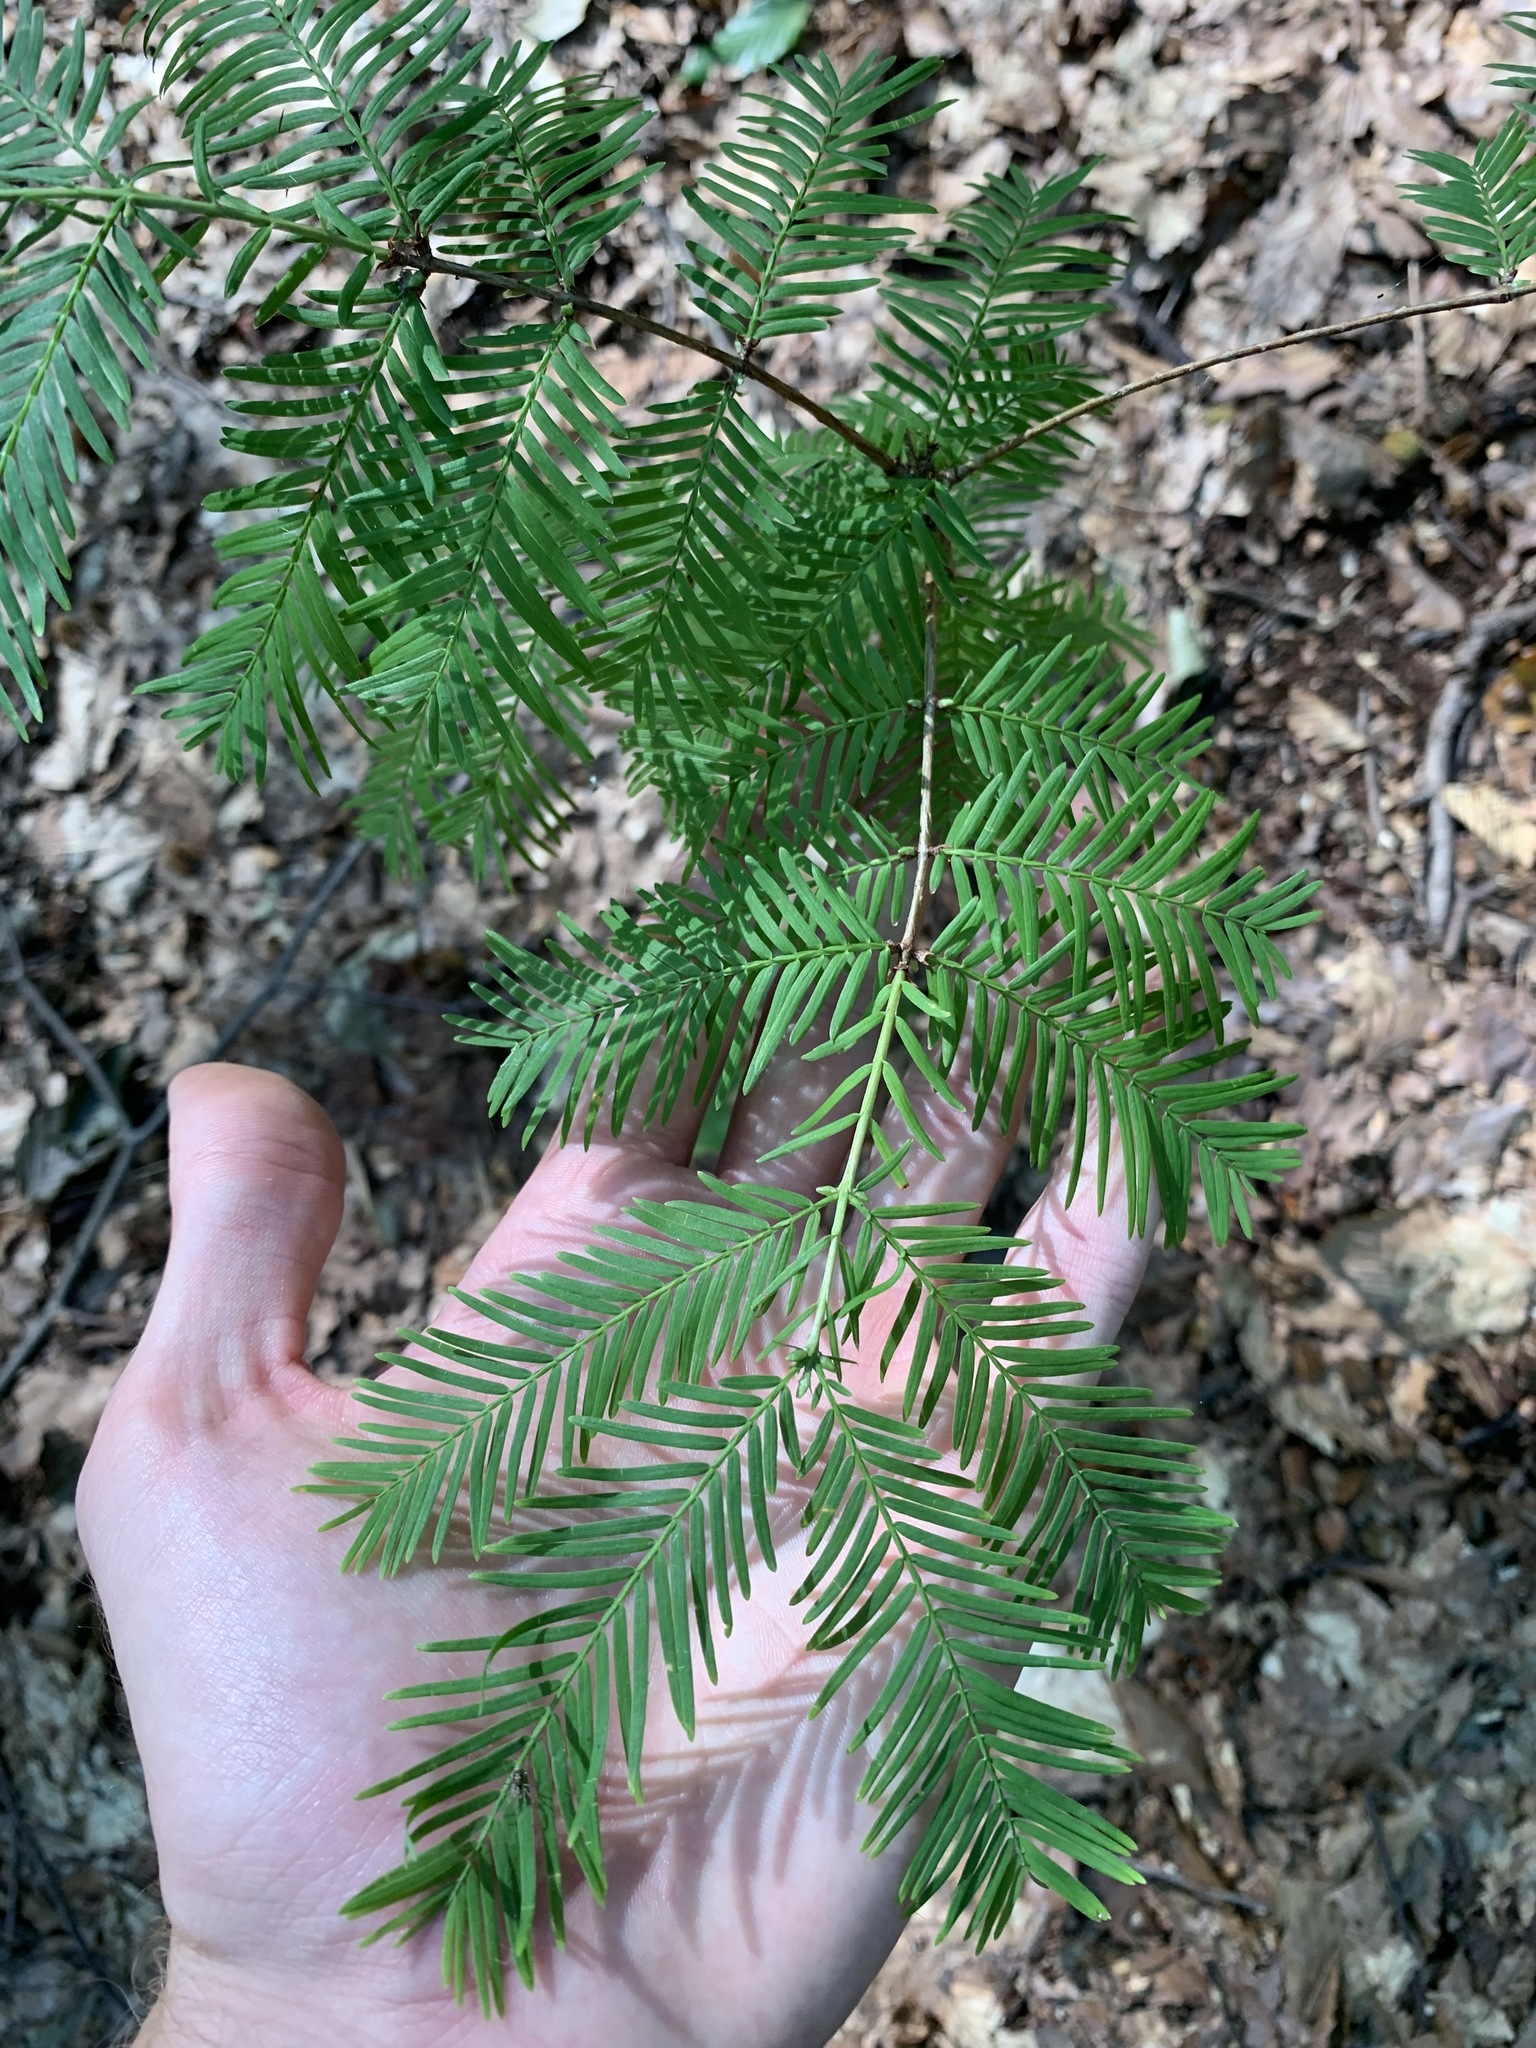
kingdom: Plantae
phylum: Tracheophyta
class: Pinopsida
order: Pinales
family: Cupressaceae
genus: Metasequoia
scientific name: Metasequoia glyptostroboides
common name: Dawn redwood
